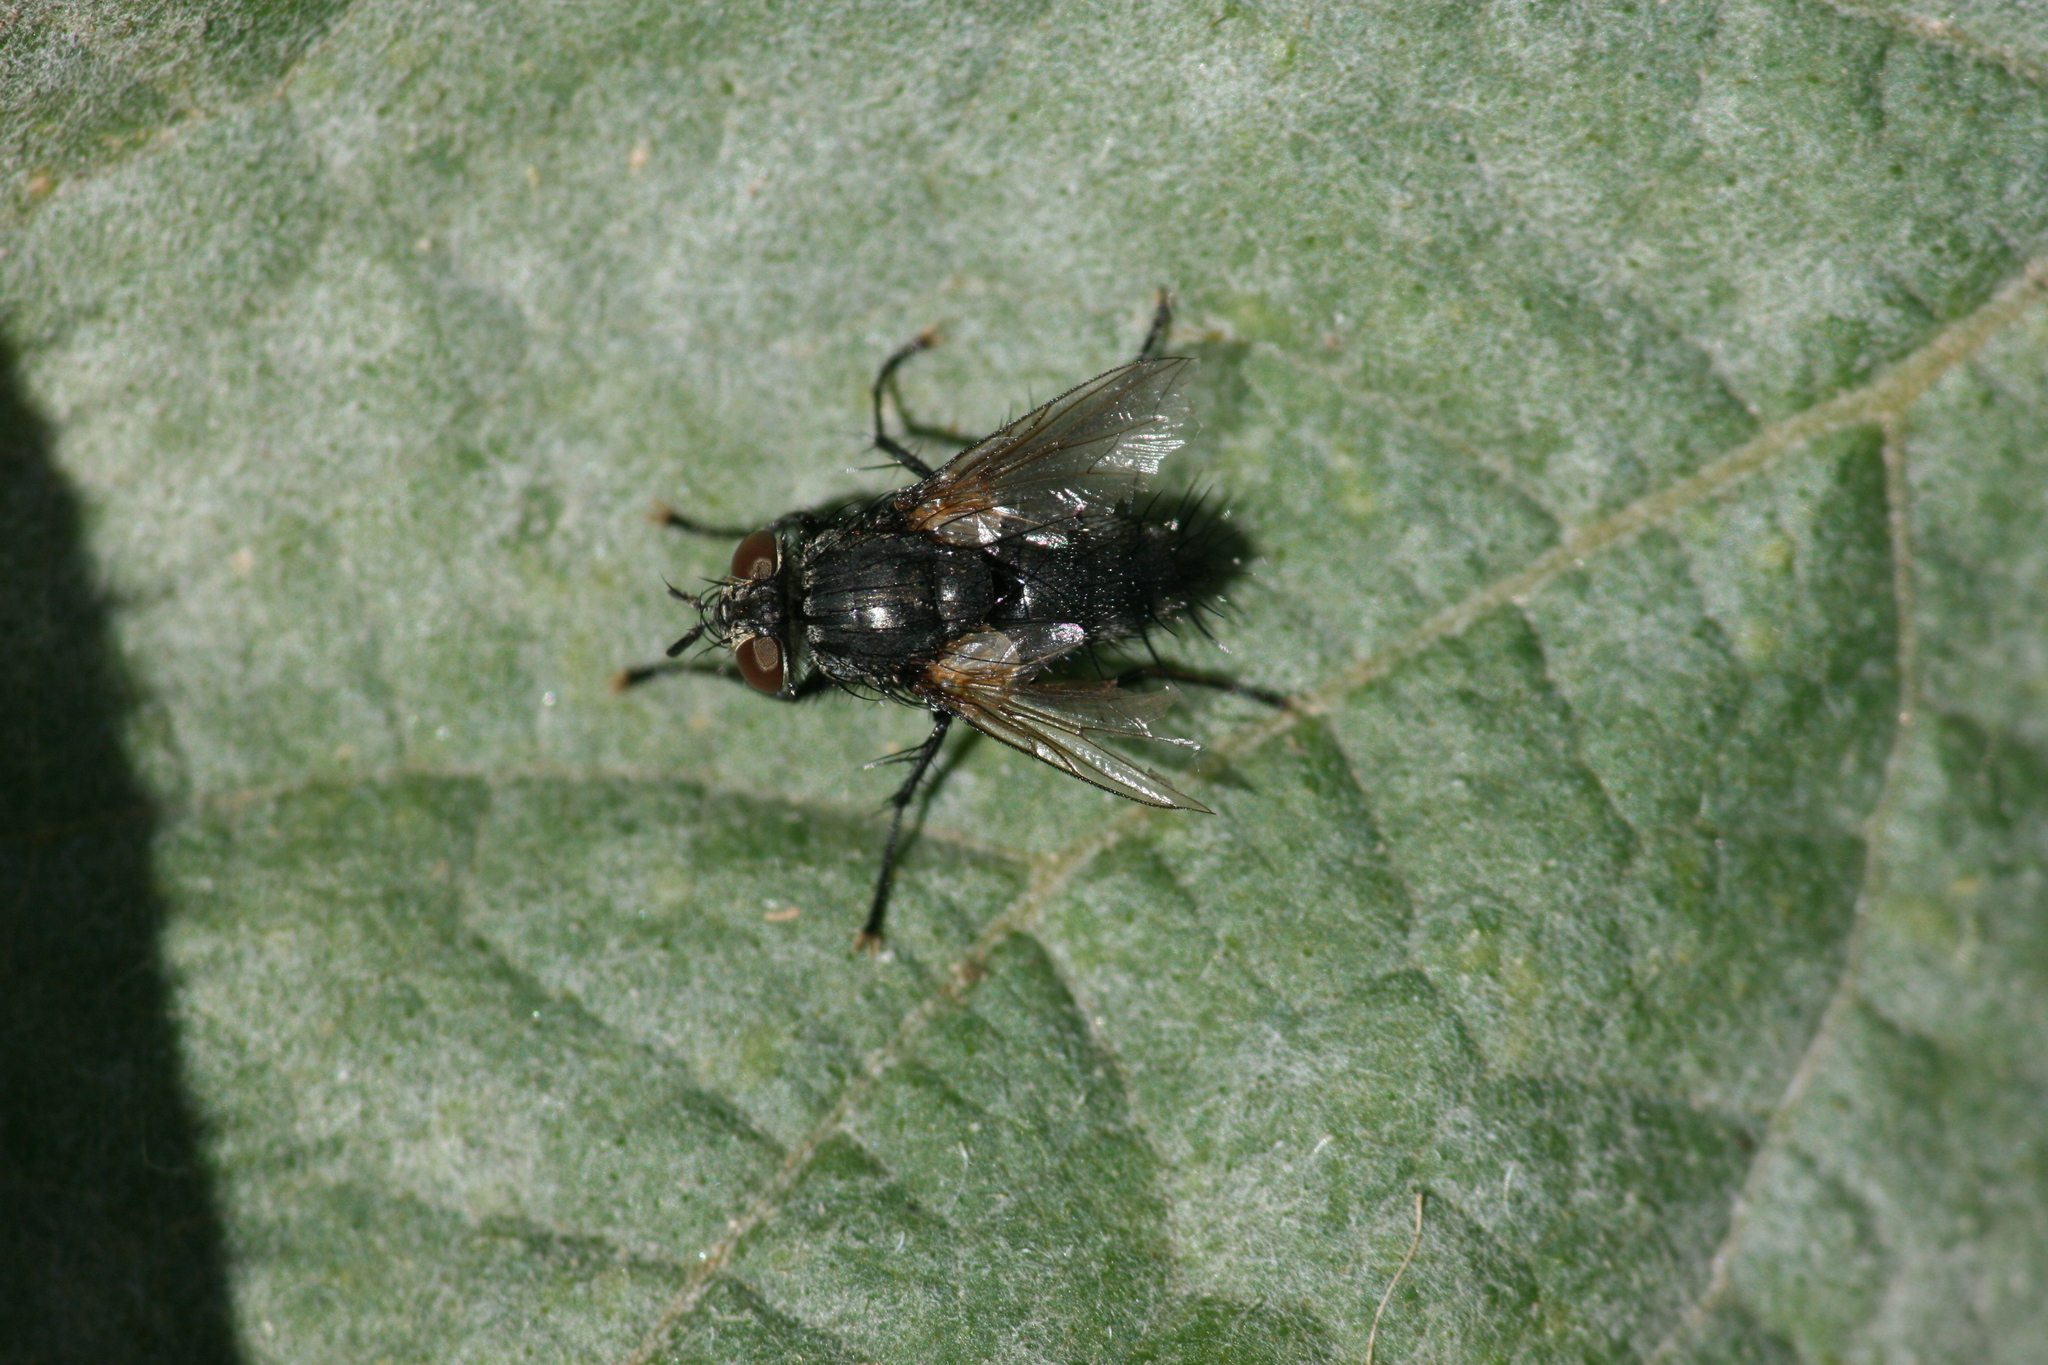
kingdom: Animalia
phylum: Arthropoda
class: Insecta
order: Diptera
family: Tachinidae
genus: Voria
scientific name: Voria ruralis
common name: Parasitic fly
